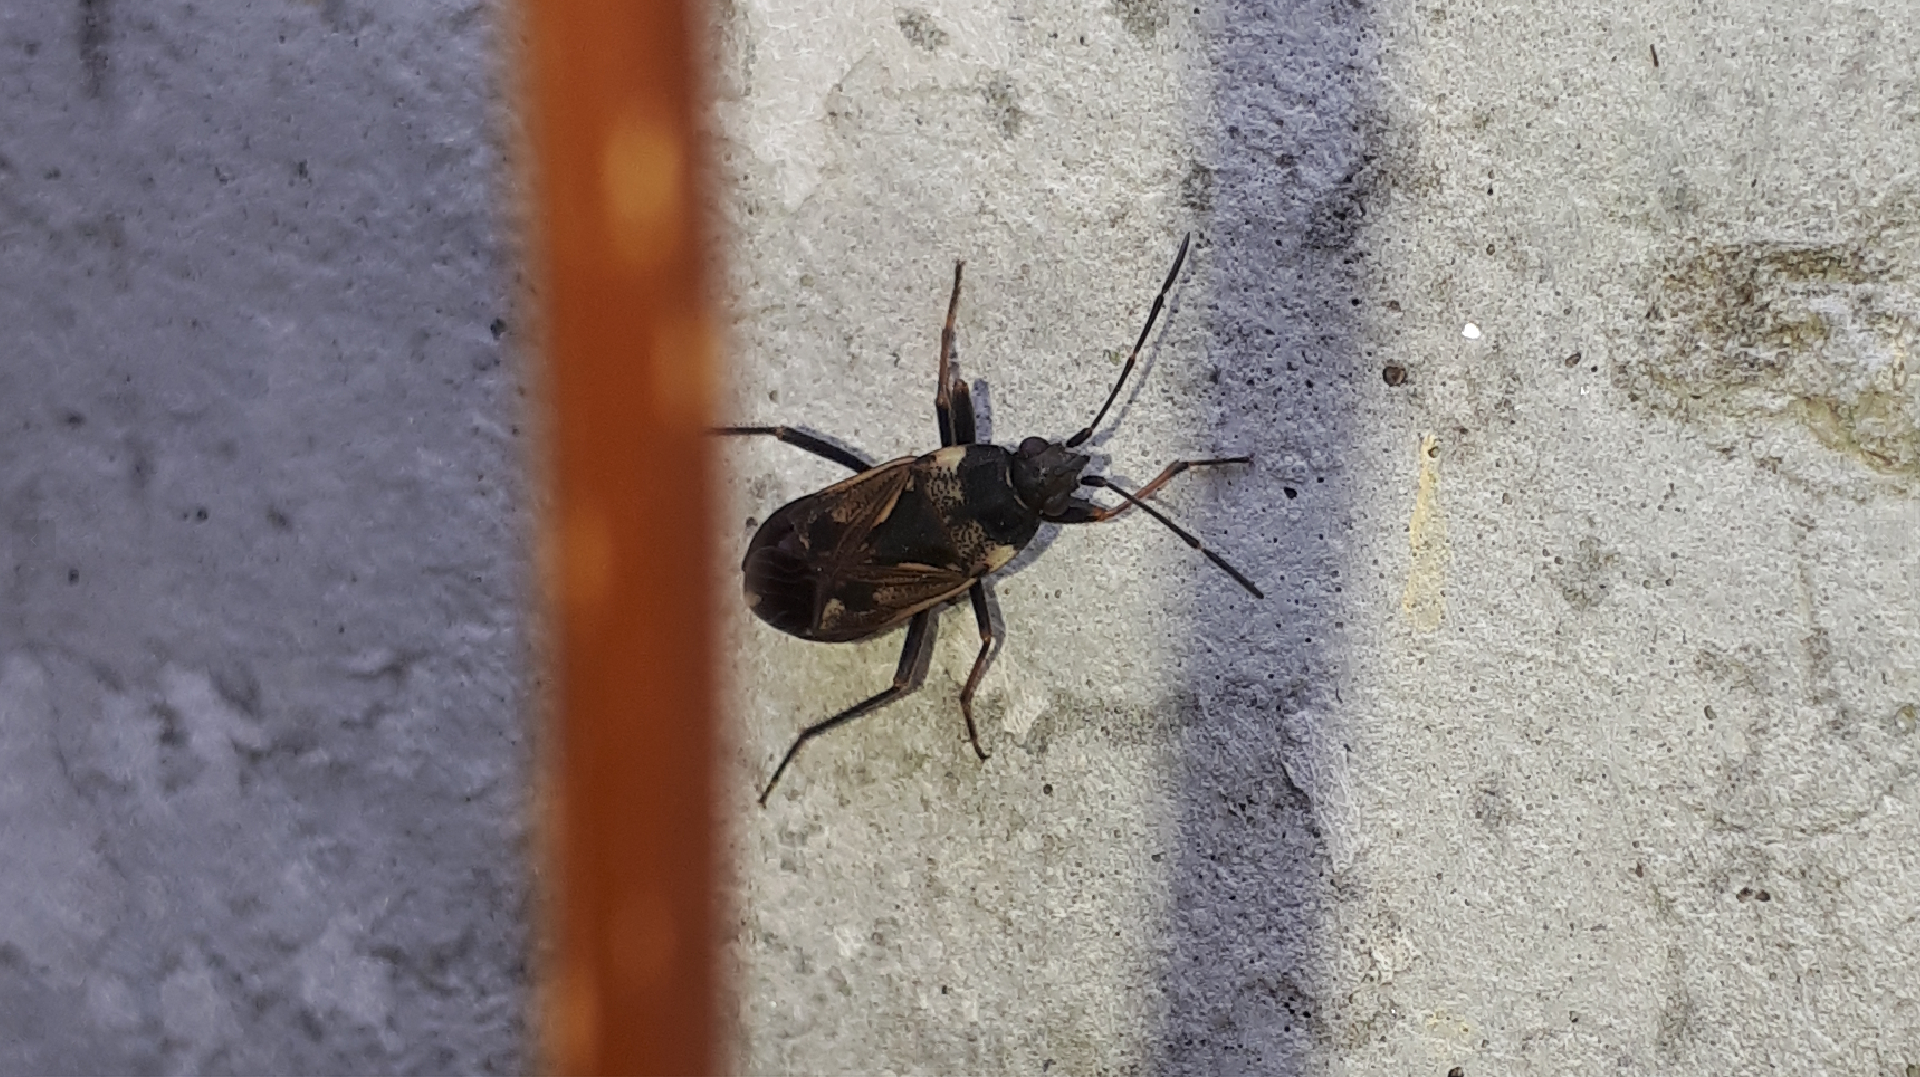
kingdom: Animalia
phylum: Arthropoda
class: Insecta
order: Hemiptera
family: Rhyparochromidae
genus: Rhyparochromus
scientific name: Rhyparochromus vulgaris
